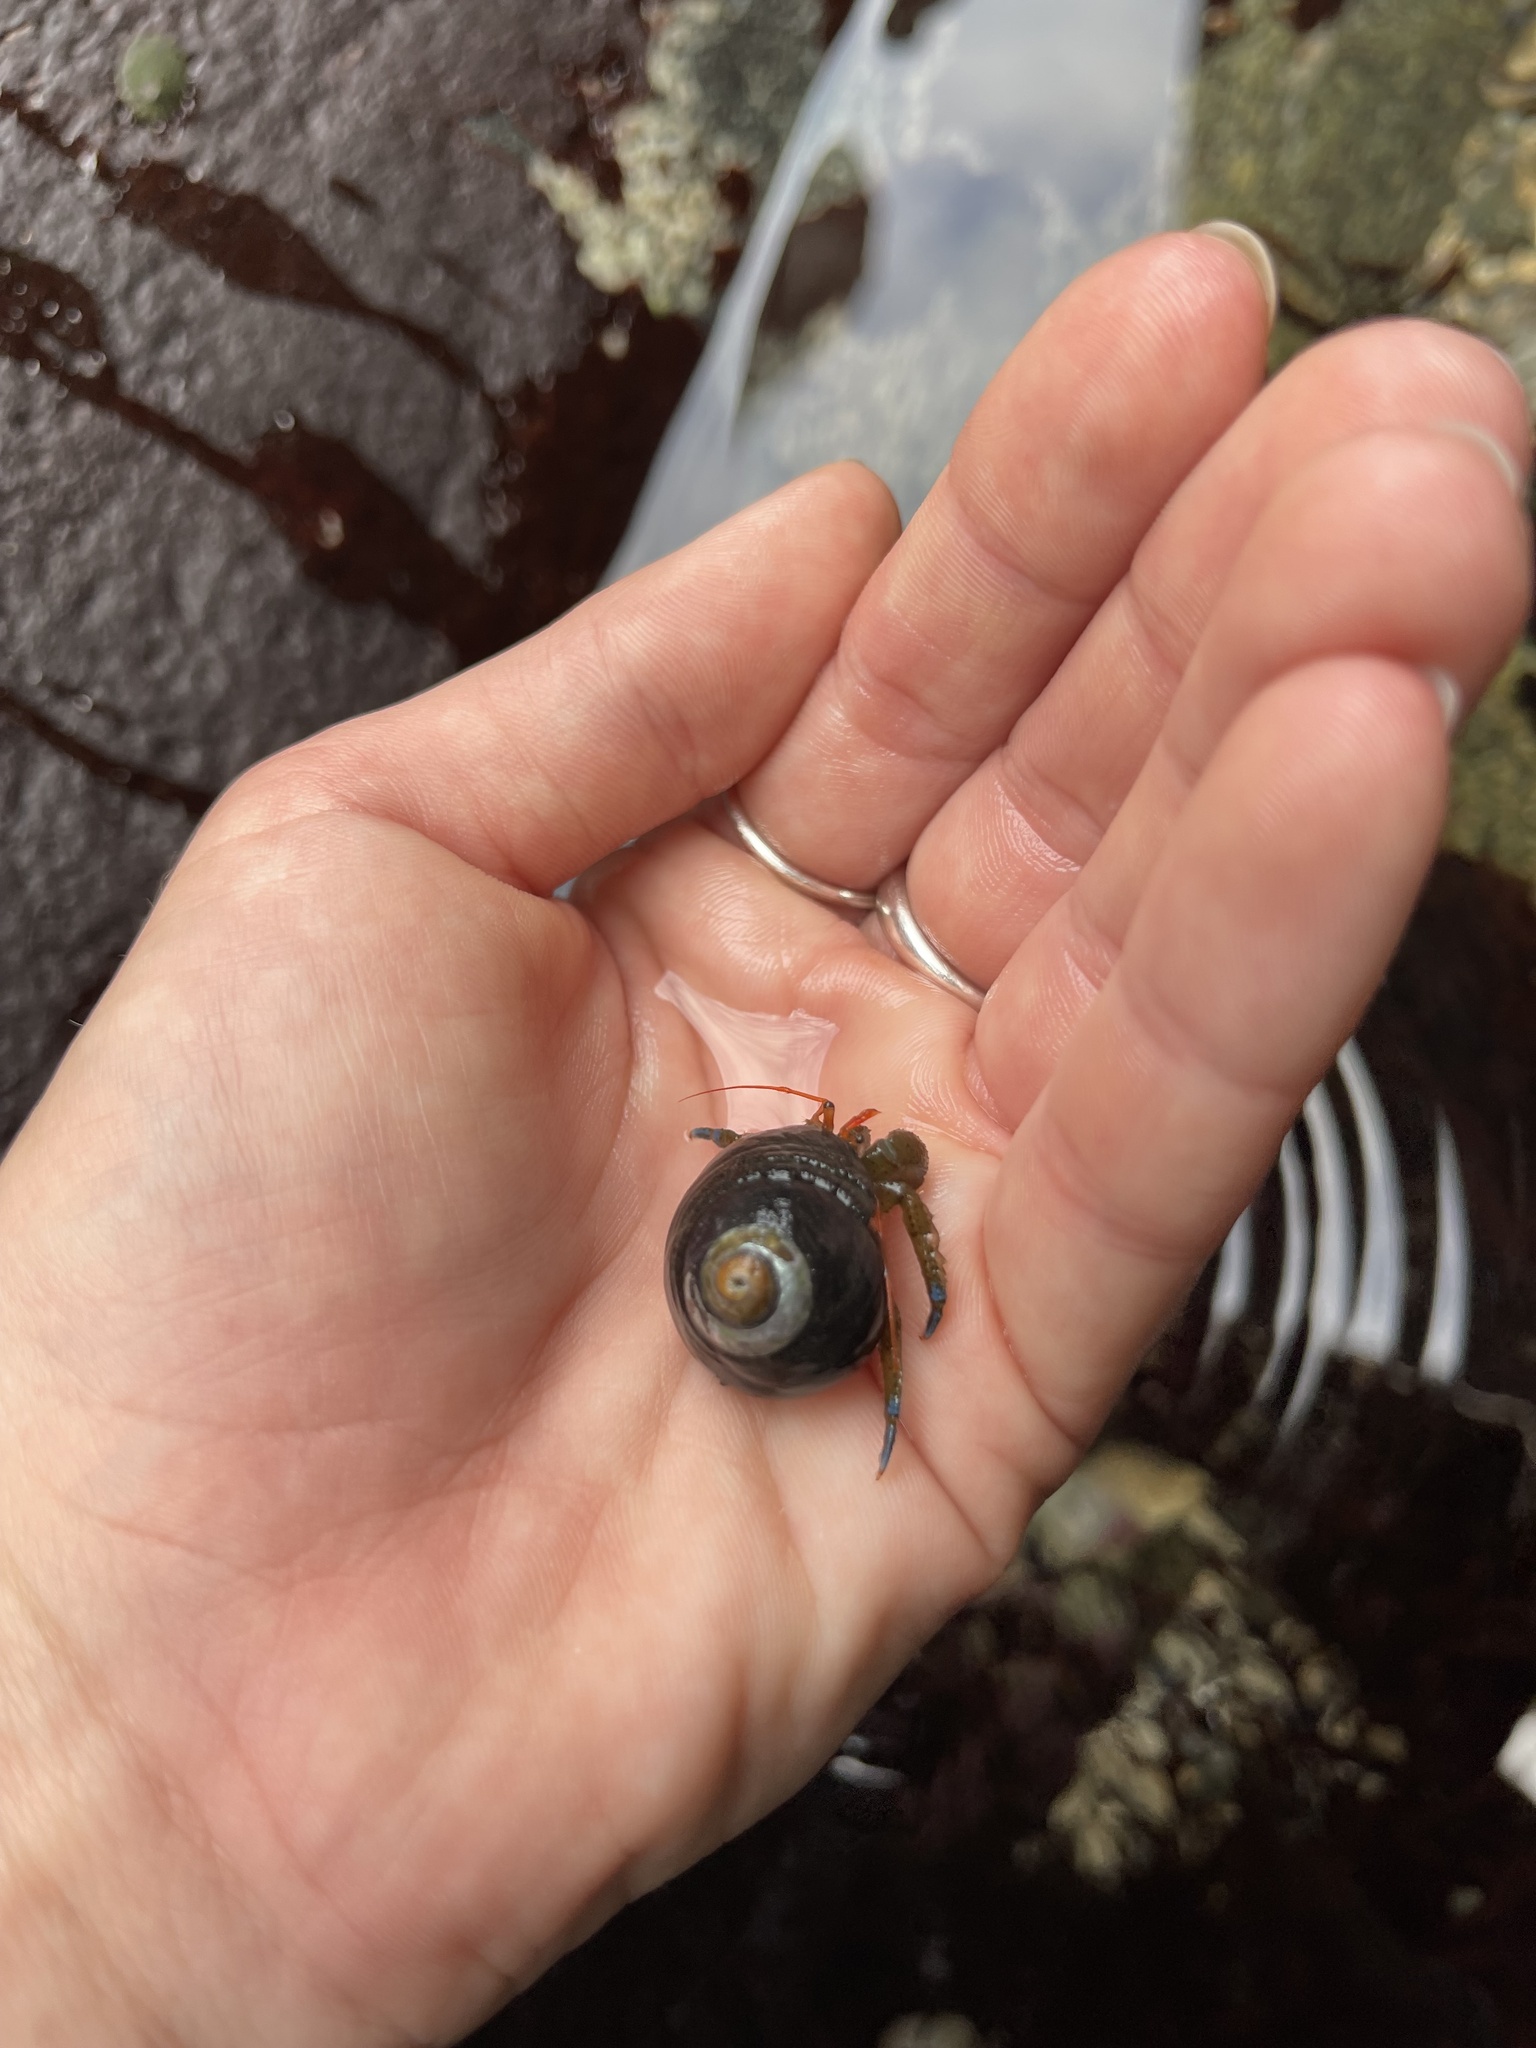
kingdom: Animalia
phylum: Arthropoda
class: Malacostraca
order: Decapoda
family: Paguridae
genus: Pagurus
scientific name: Pagurus samuelis
